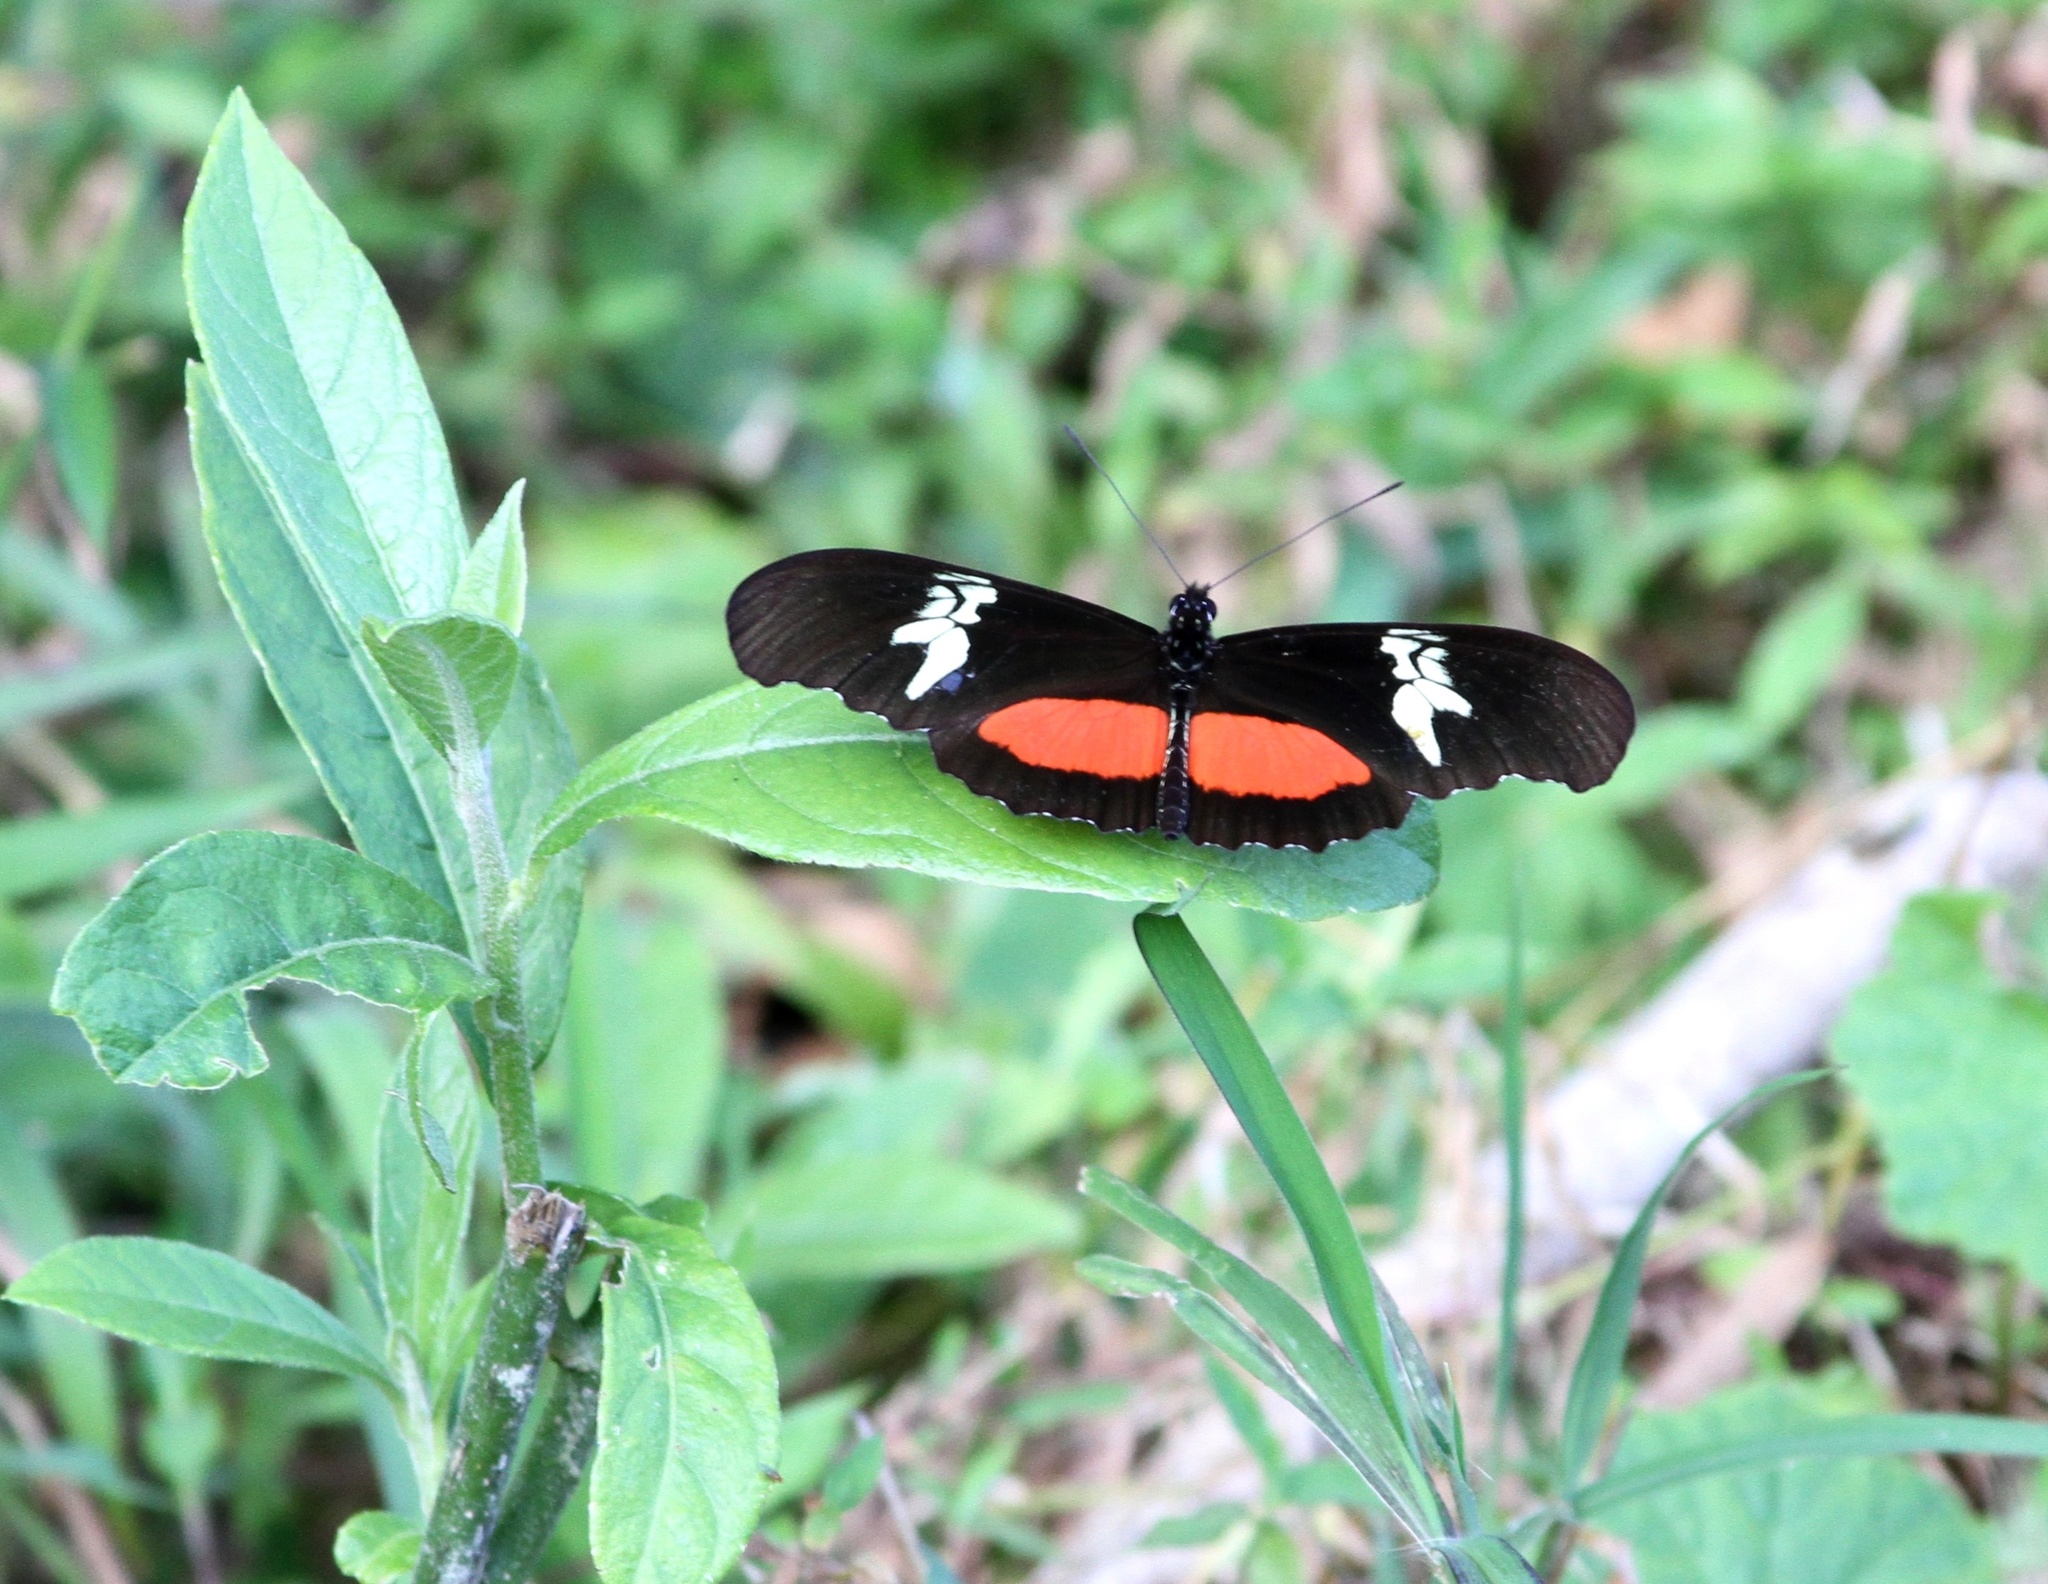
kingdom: Animalia
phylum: Arthropoda
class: Insecta
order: Lepidoptera
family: Nymphalidae
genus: Heliconius
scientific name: Heliconius hortense
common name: Mexican longwing
